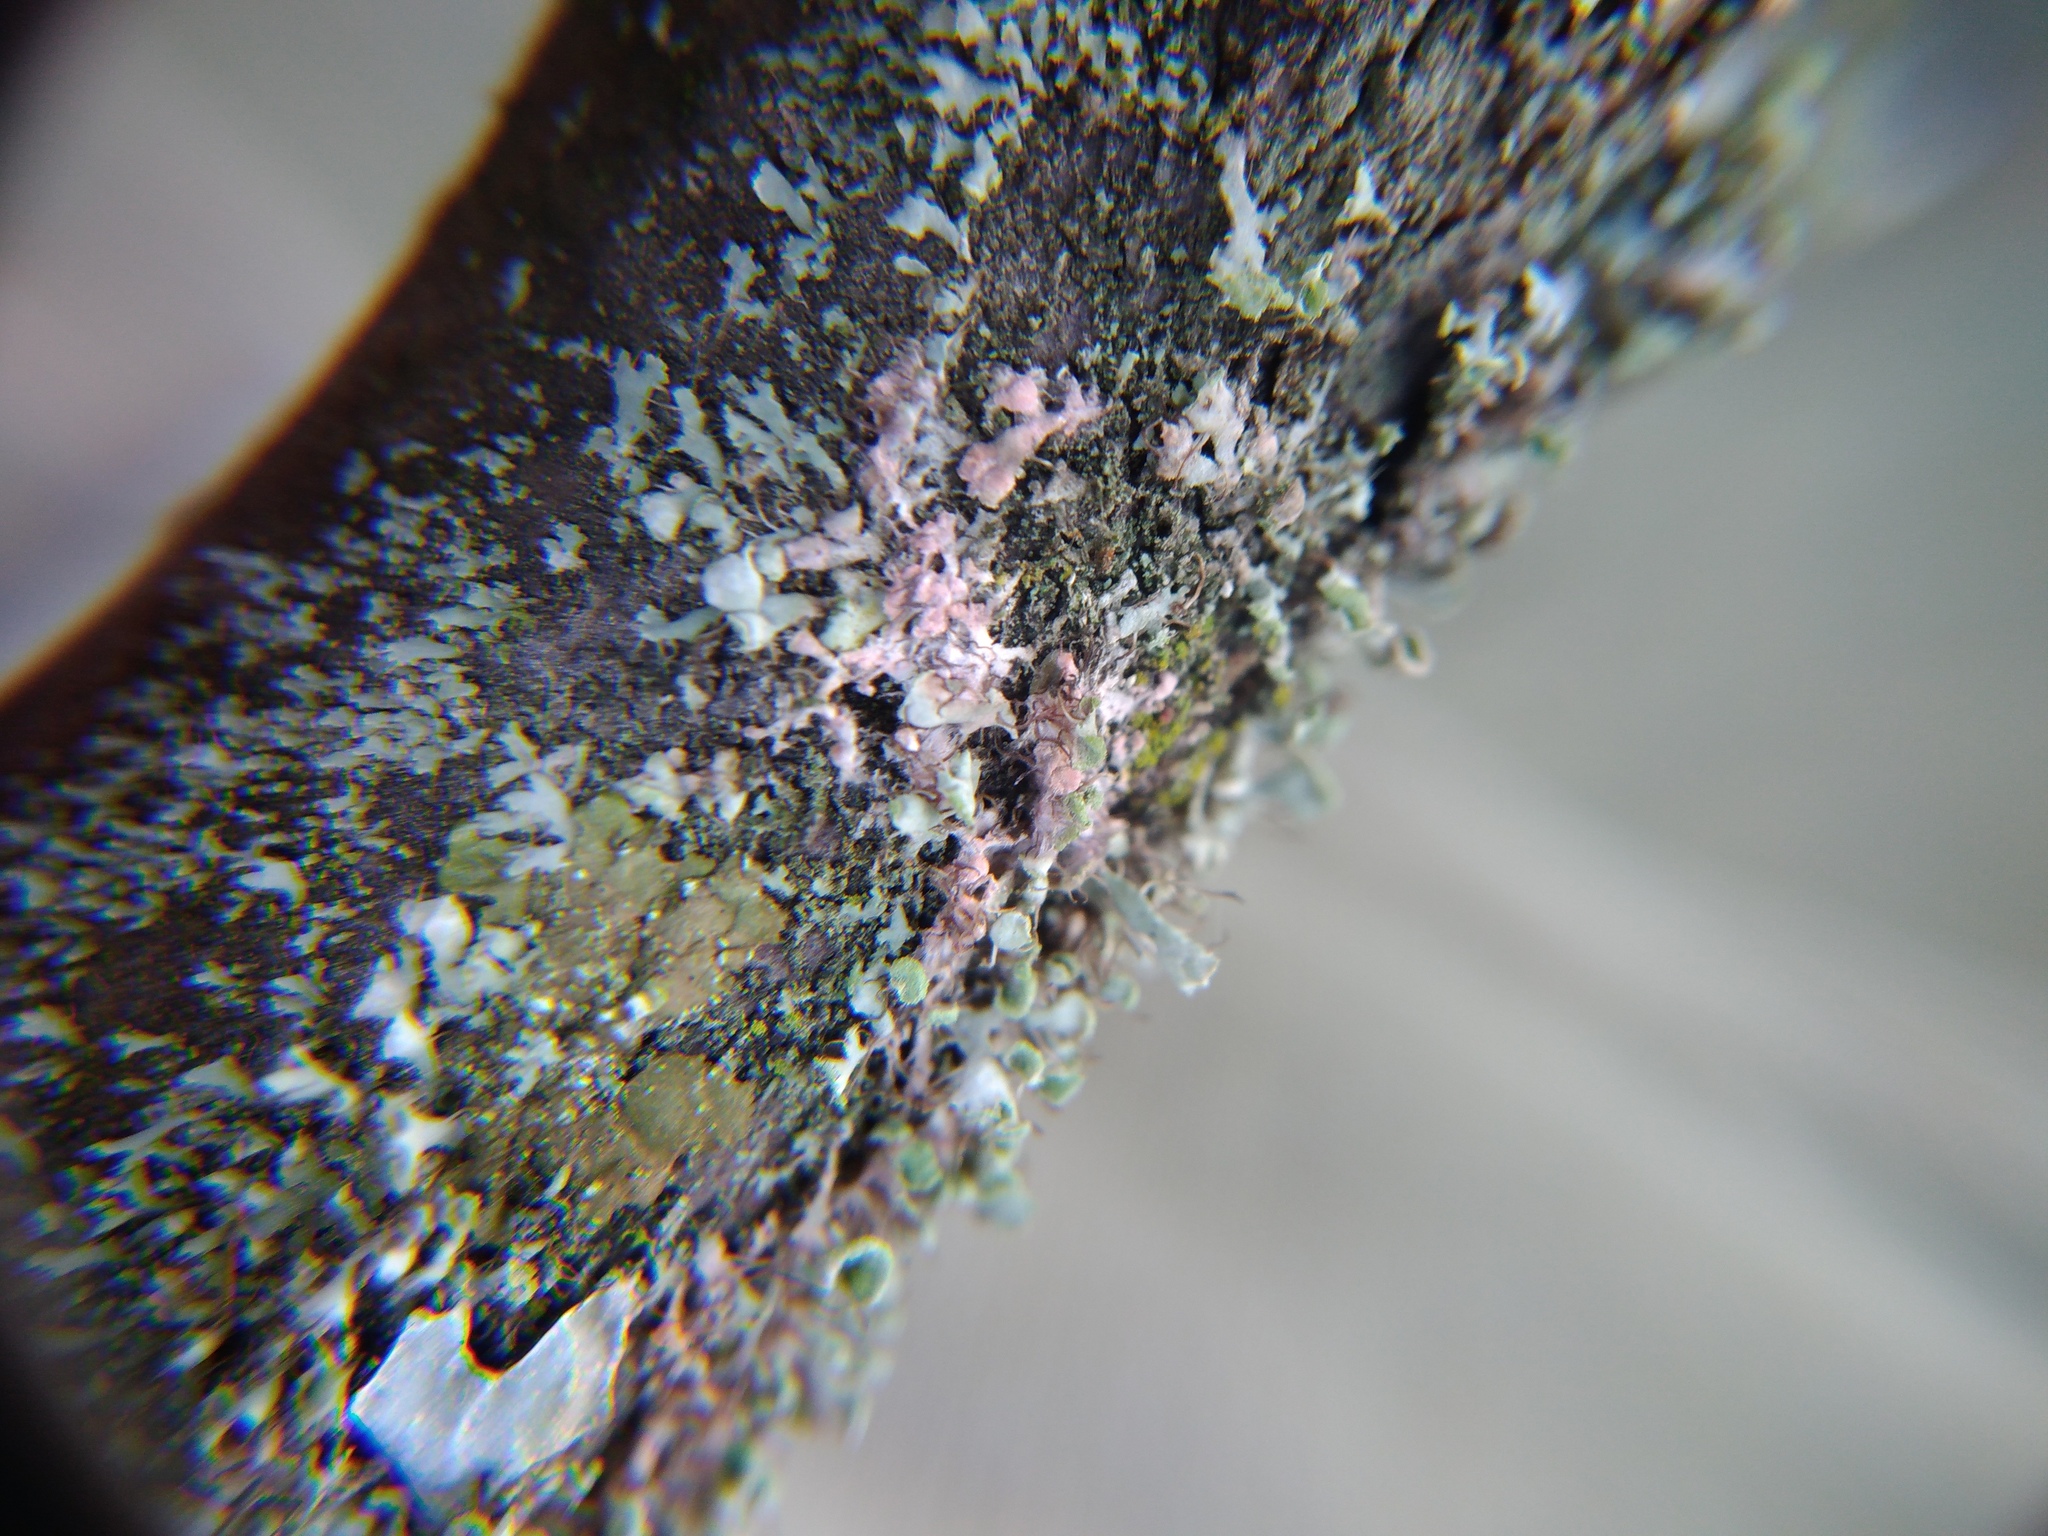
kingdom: Fungi
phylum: Basidiomycota
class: Agaricomycetes
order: Corticiales
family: Corticiaceae
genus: Laetisaria
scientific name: Laetisaria lichenicola
